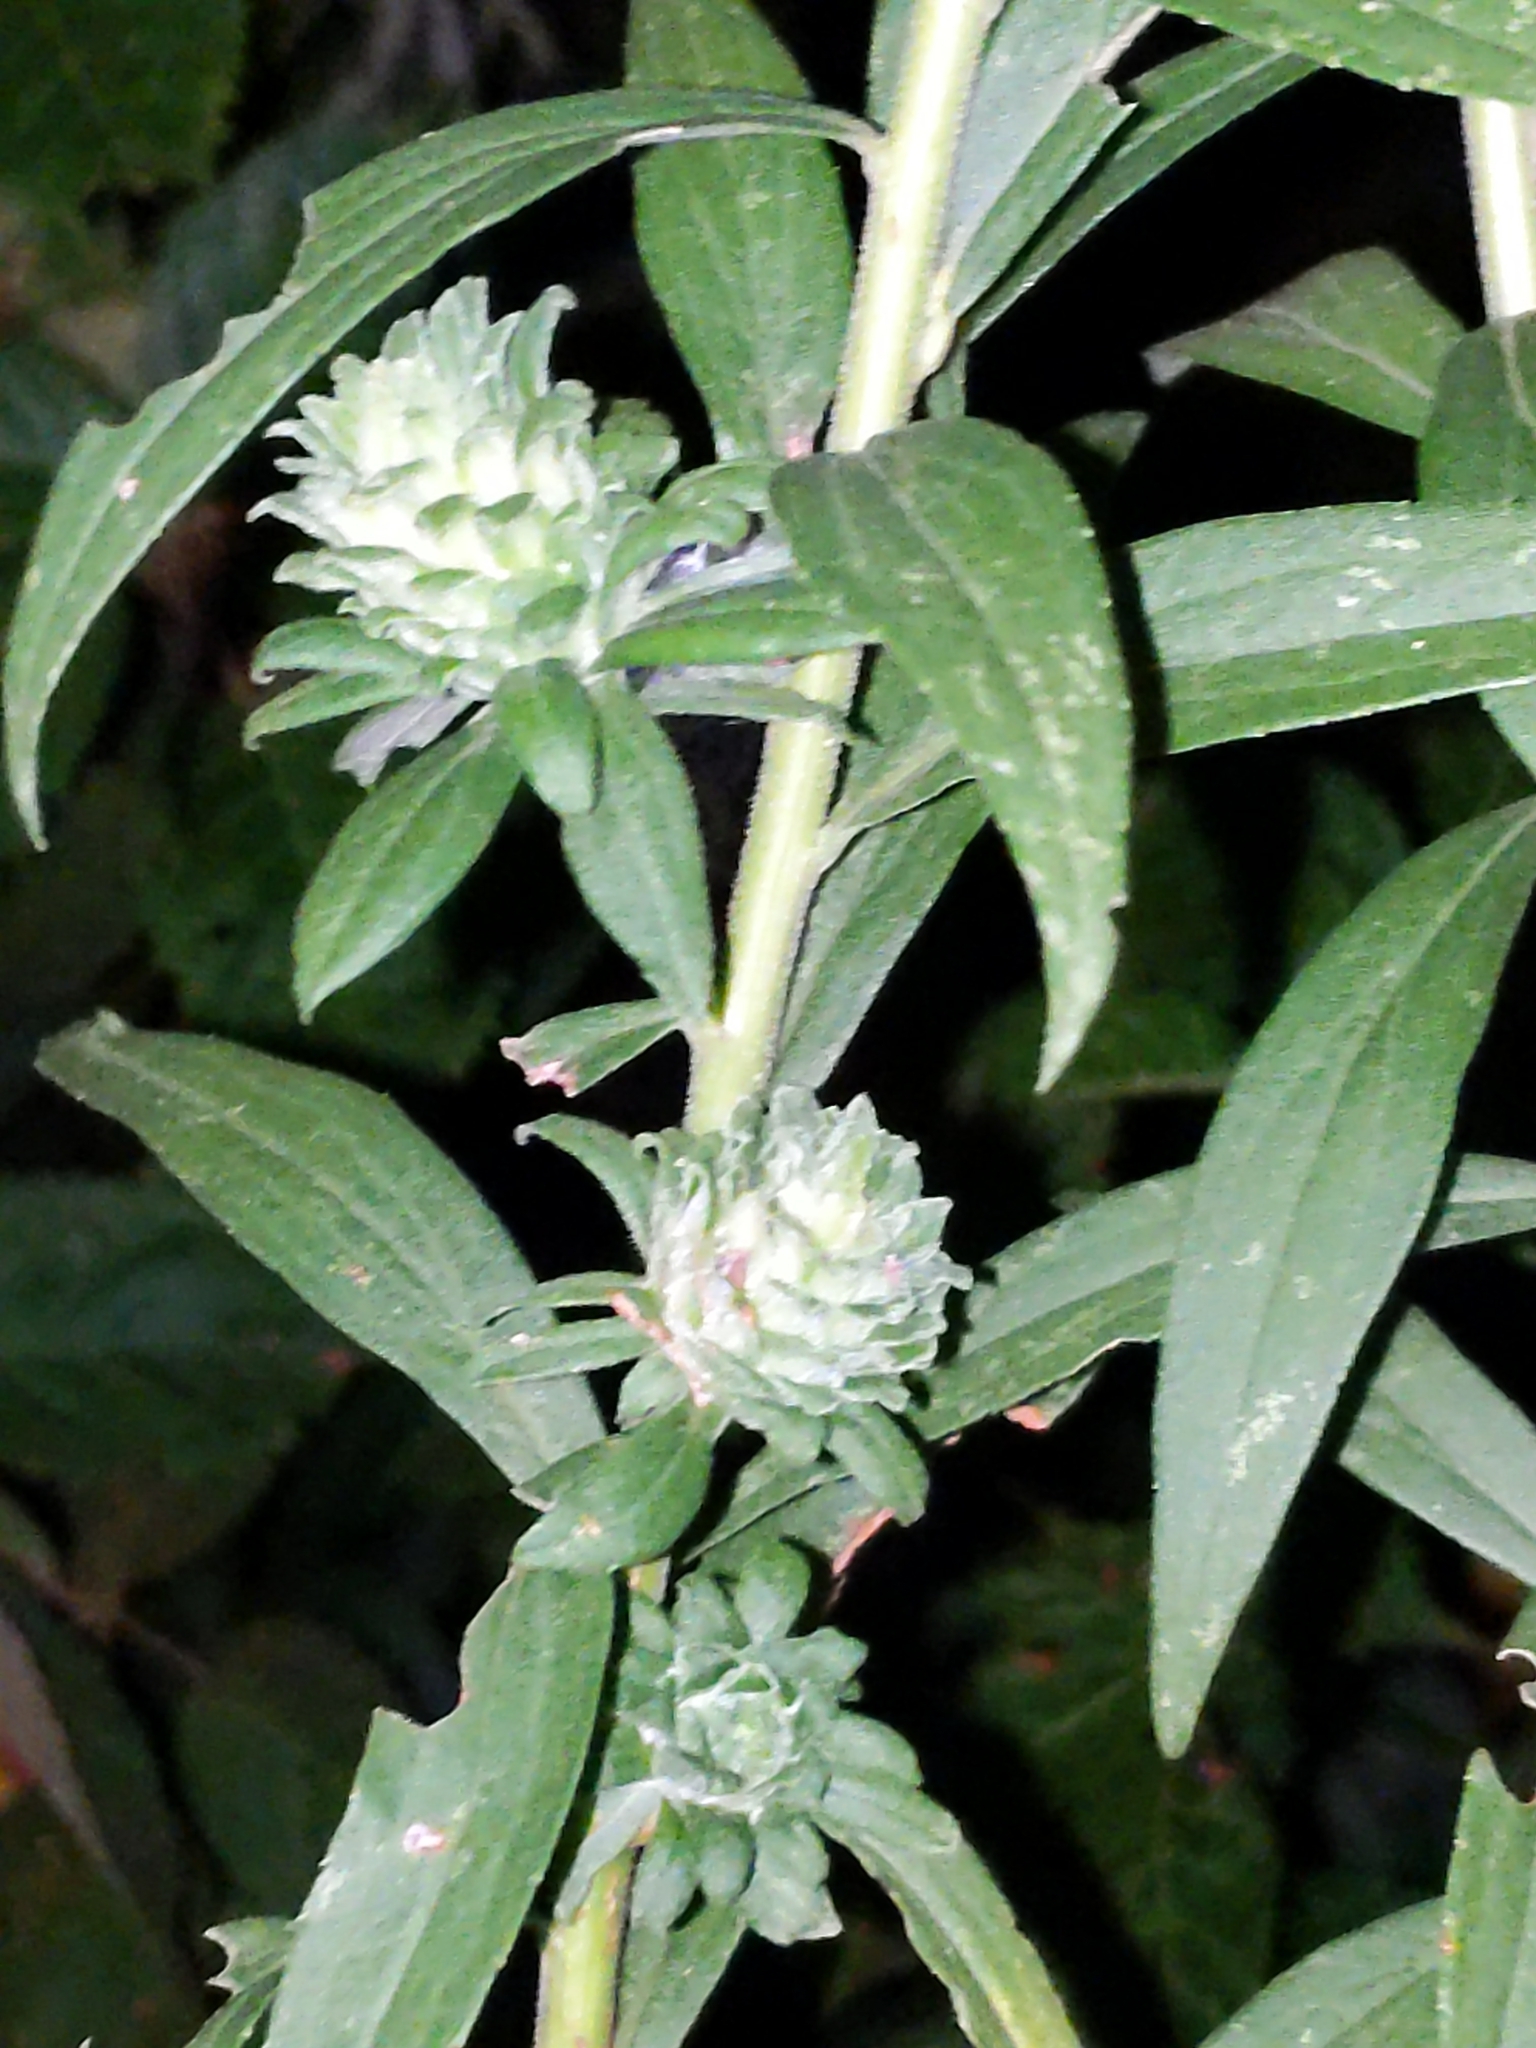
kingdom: Animalia
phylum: Arthropoda
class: Insecta
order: Diptera
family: Tephritidae
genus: Procecidochares
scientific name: Procecidochares atra
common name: Goldenrod brussels sprout gall fly
